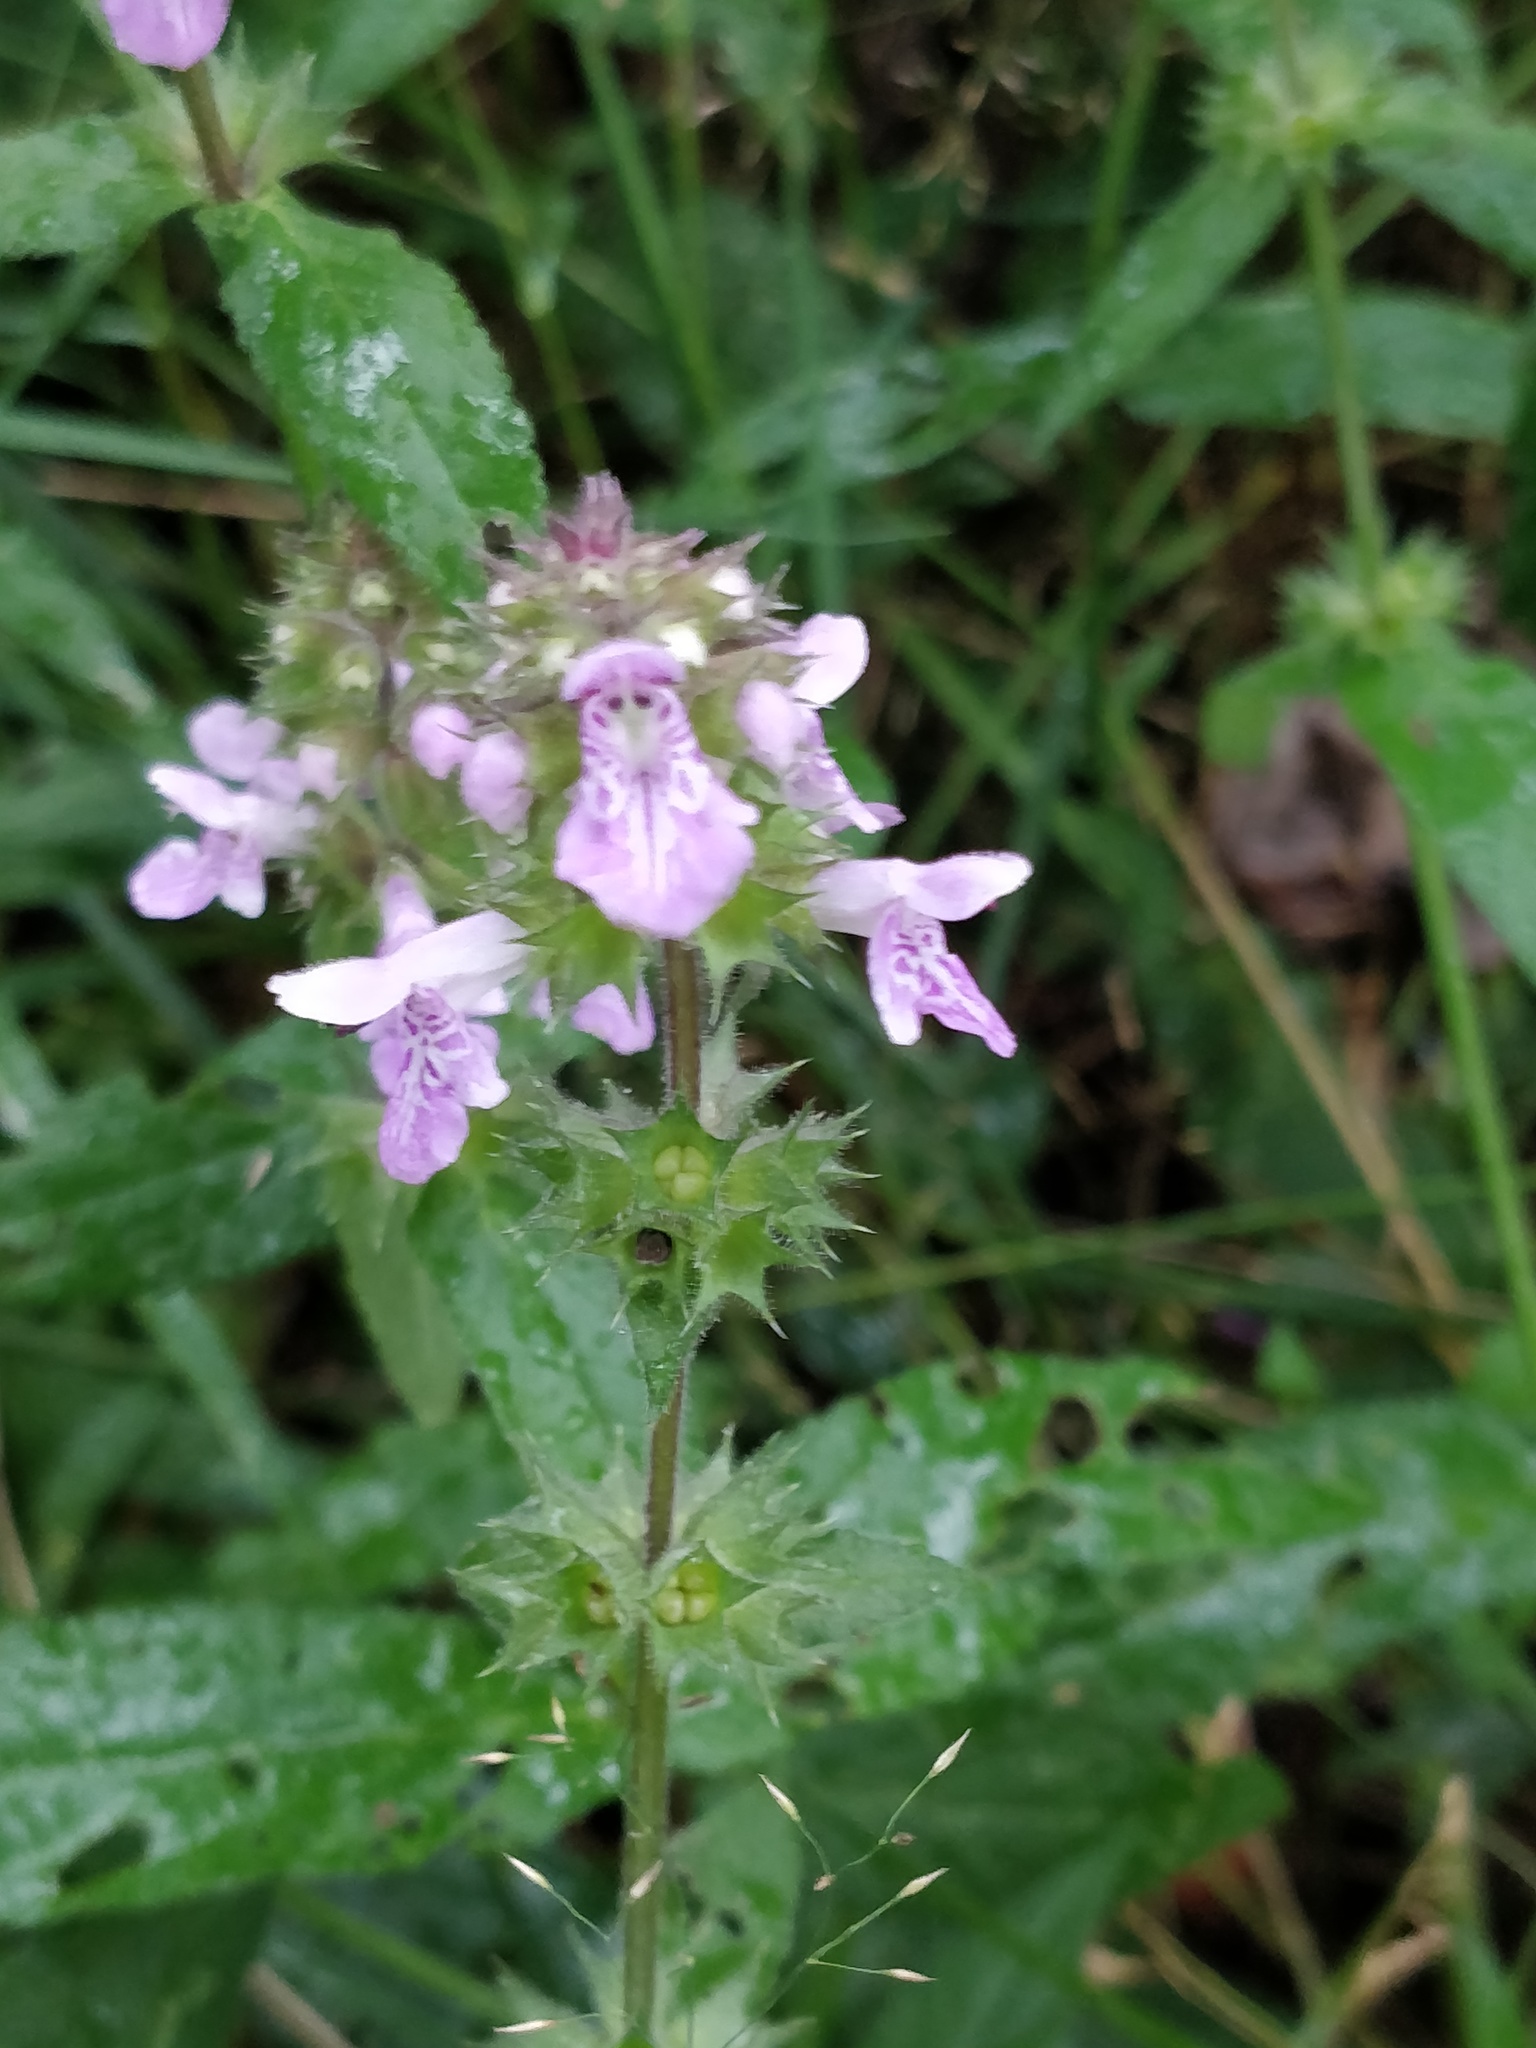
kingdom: Plantae
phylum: Tracheophyta
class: Magnoliopsida
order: Lamiales
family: Lamiaceae
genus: Stachys
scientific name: Stachys palustris
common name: Marsh woundwort
